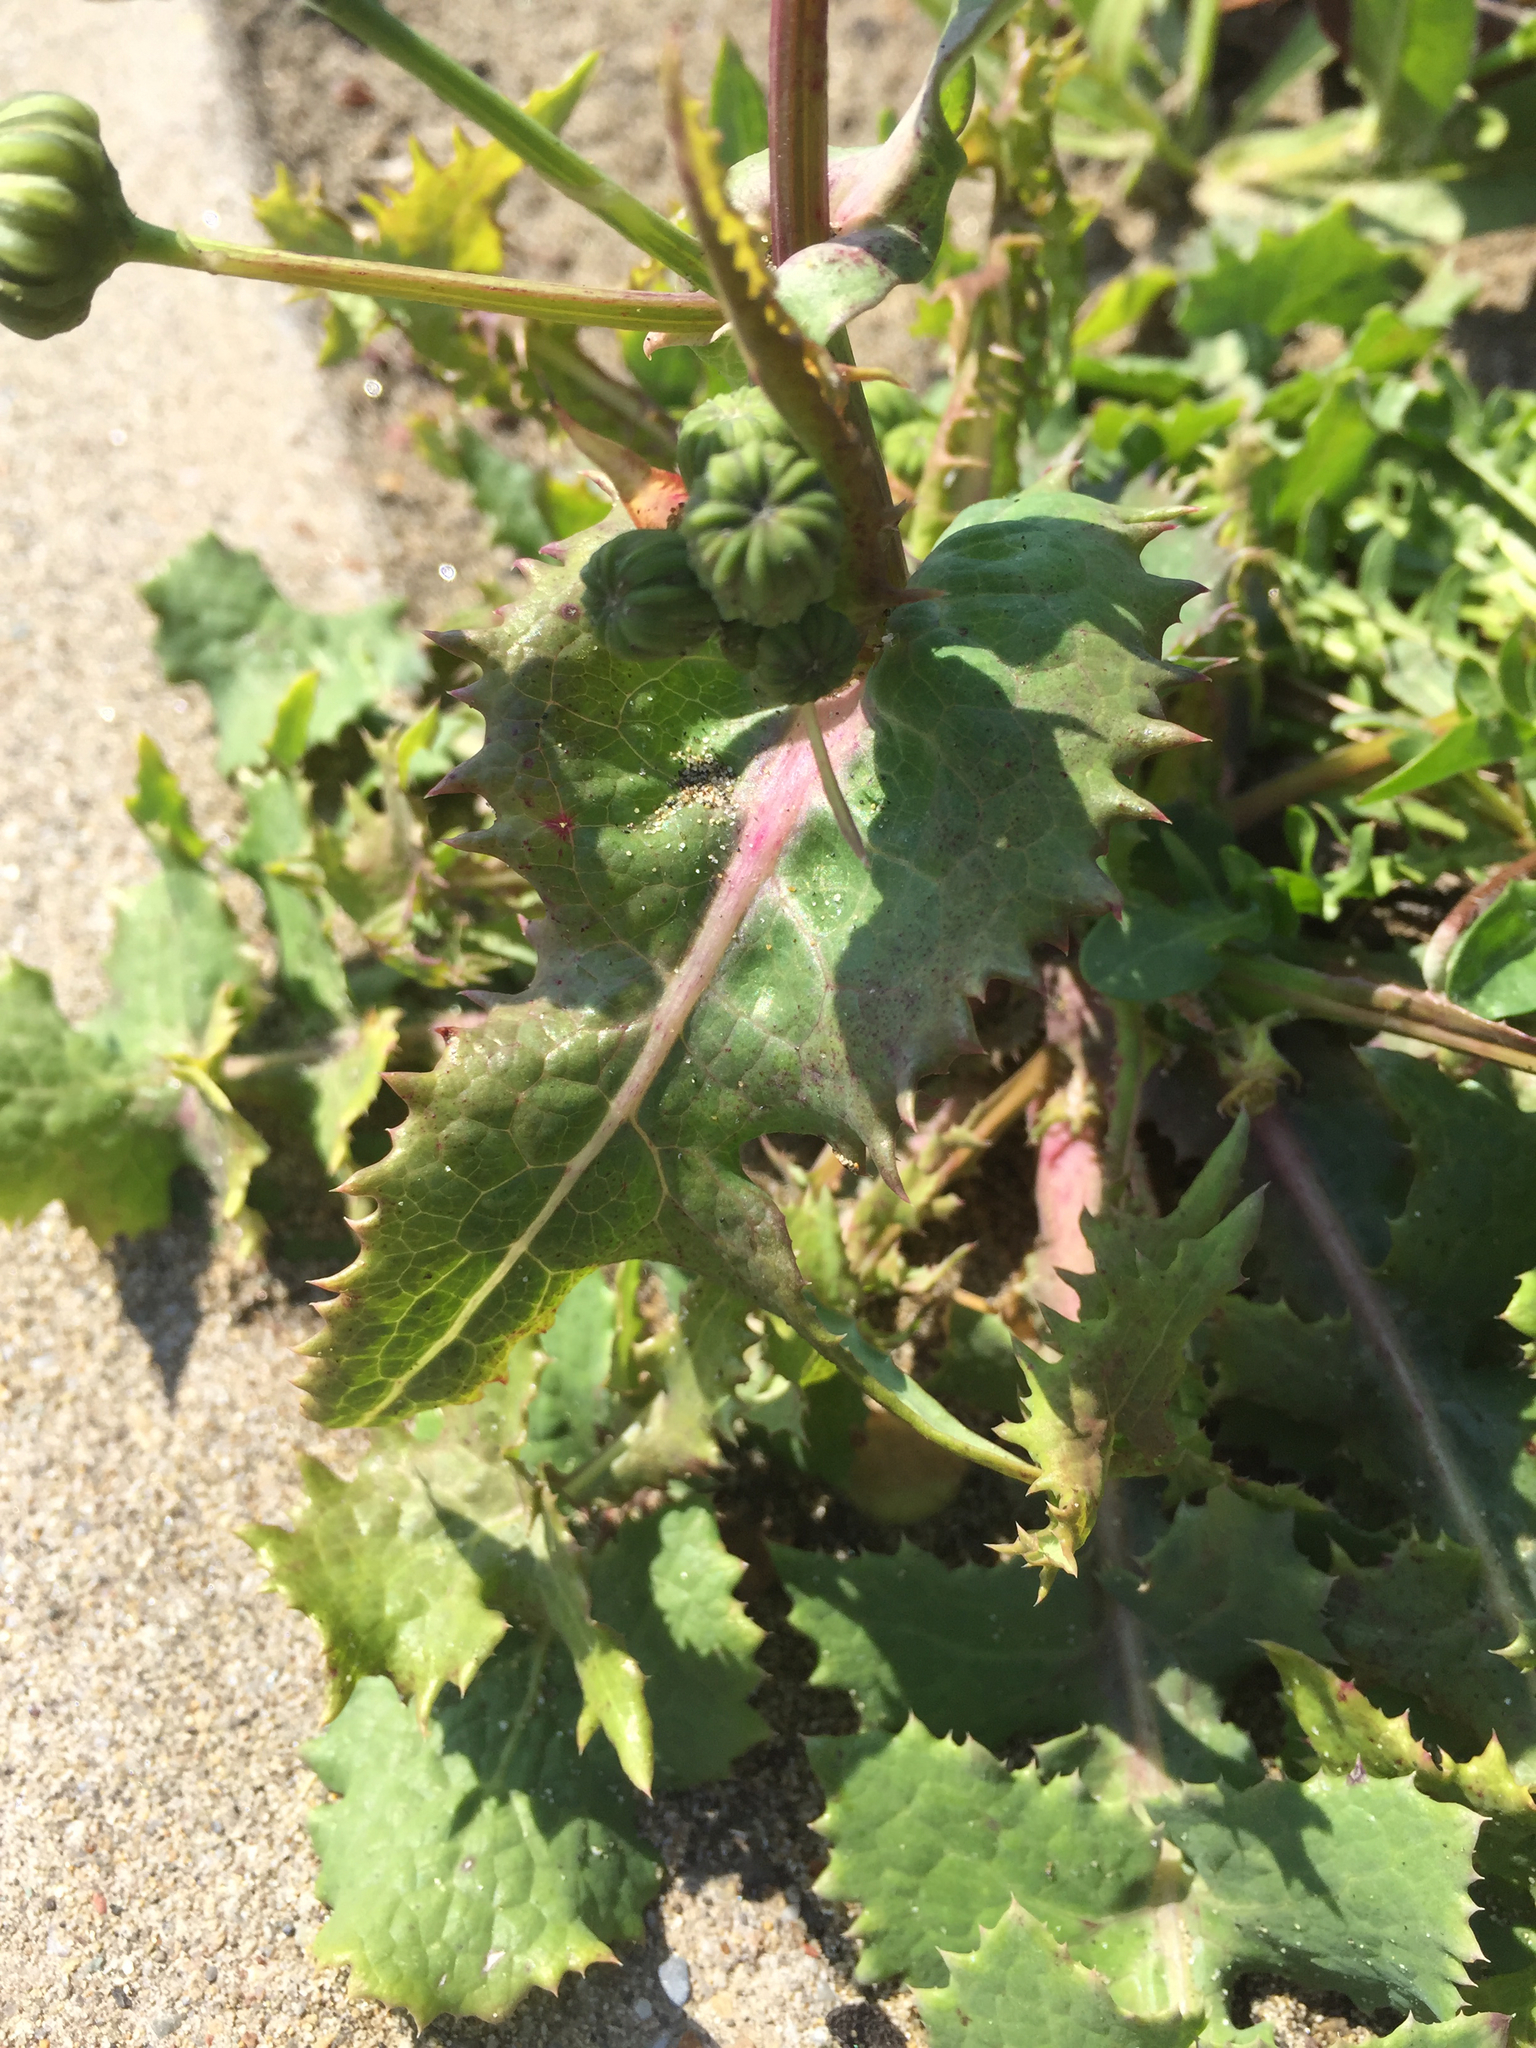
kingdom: Plantae
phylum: Tracheophyta
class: Magnoliopsida
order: Asterales
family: Asteraceae
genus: Sonchus
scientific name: Sonchus oleraceus
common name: Common sowthistle
